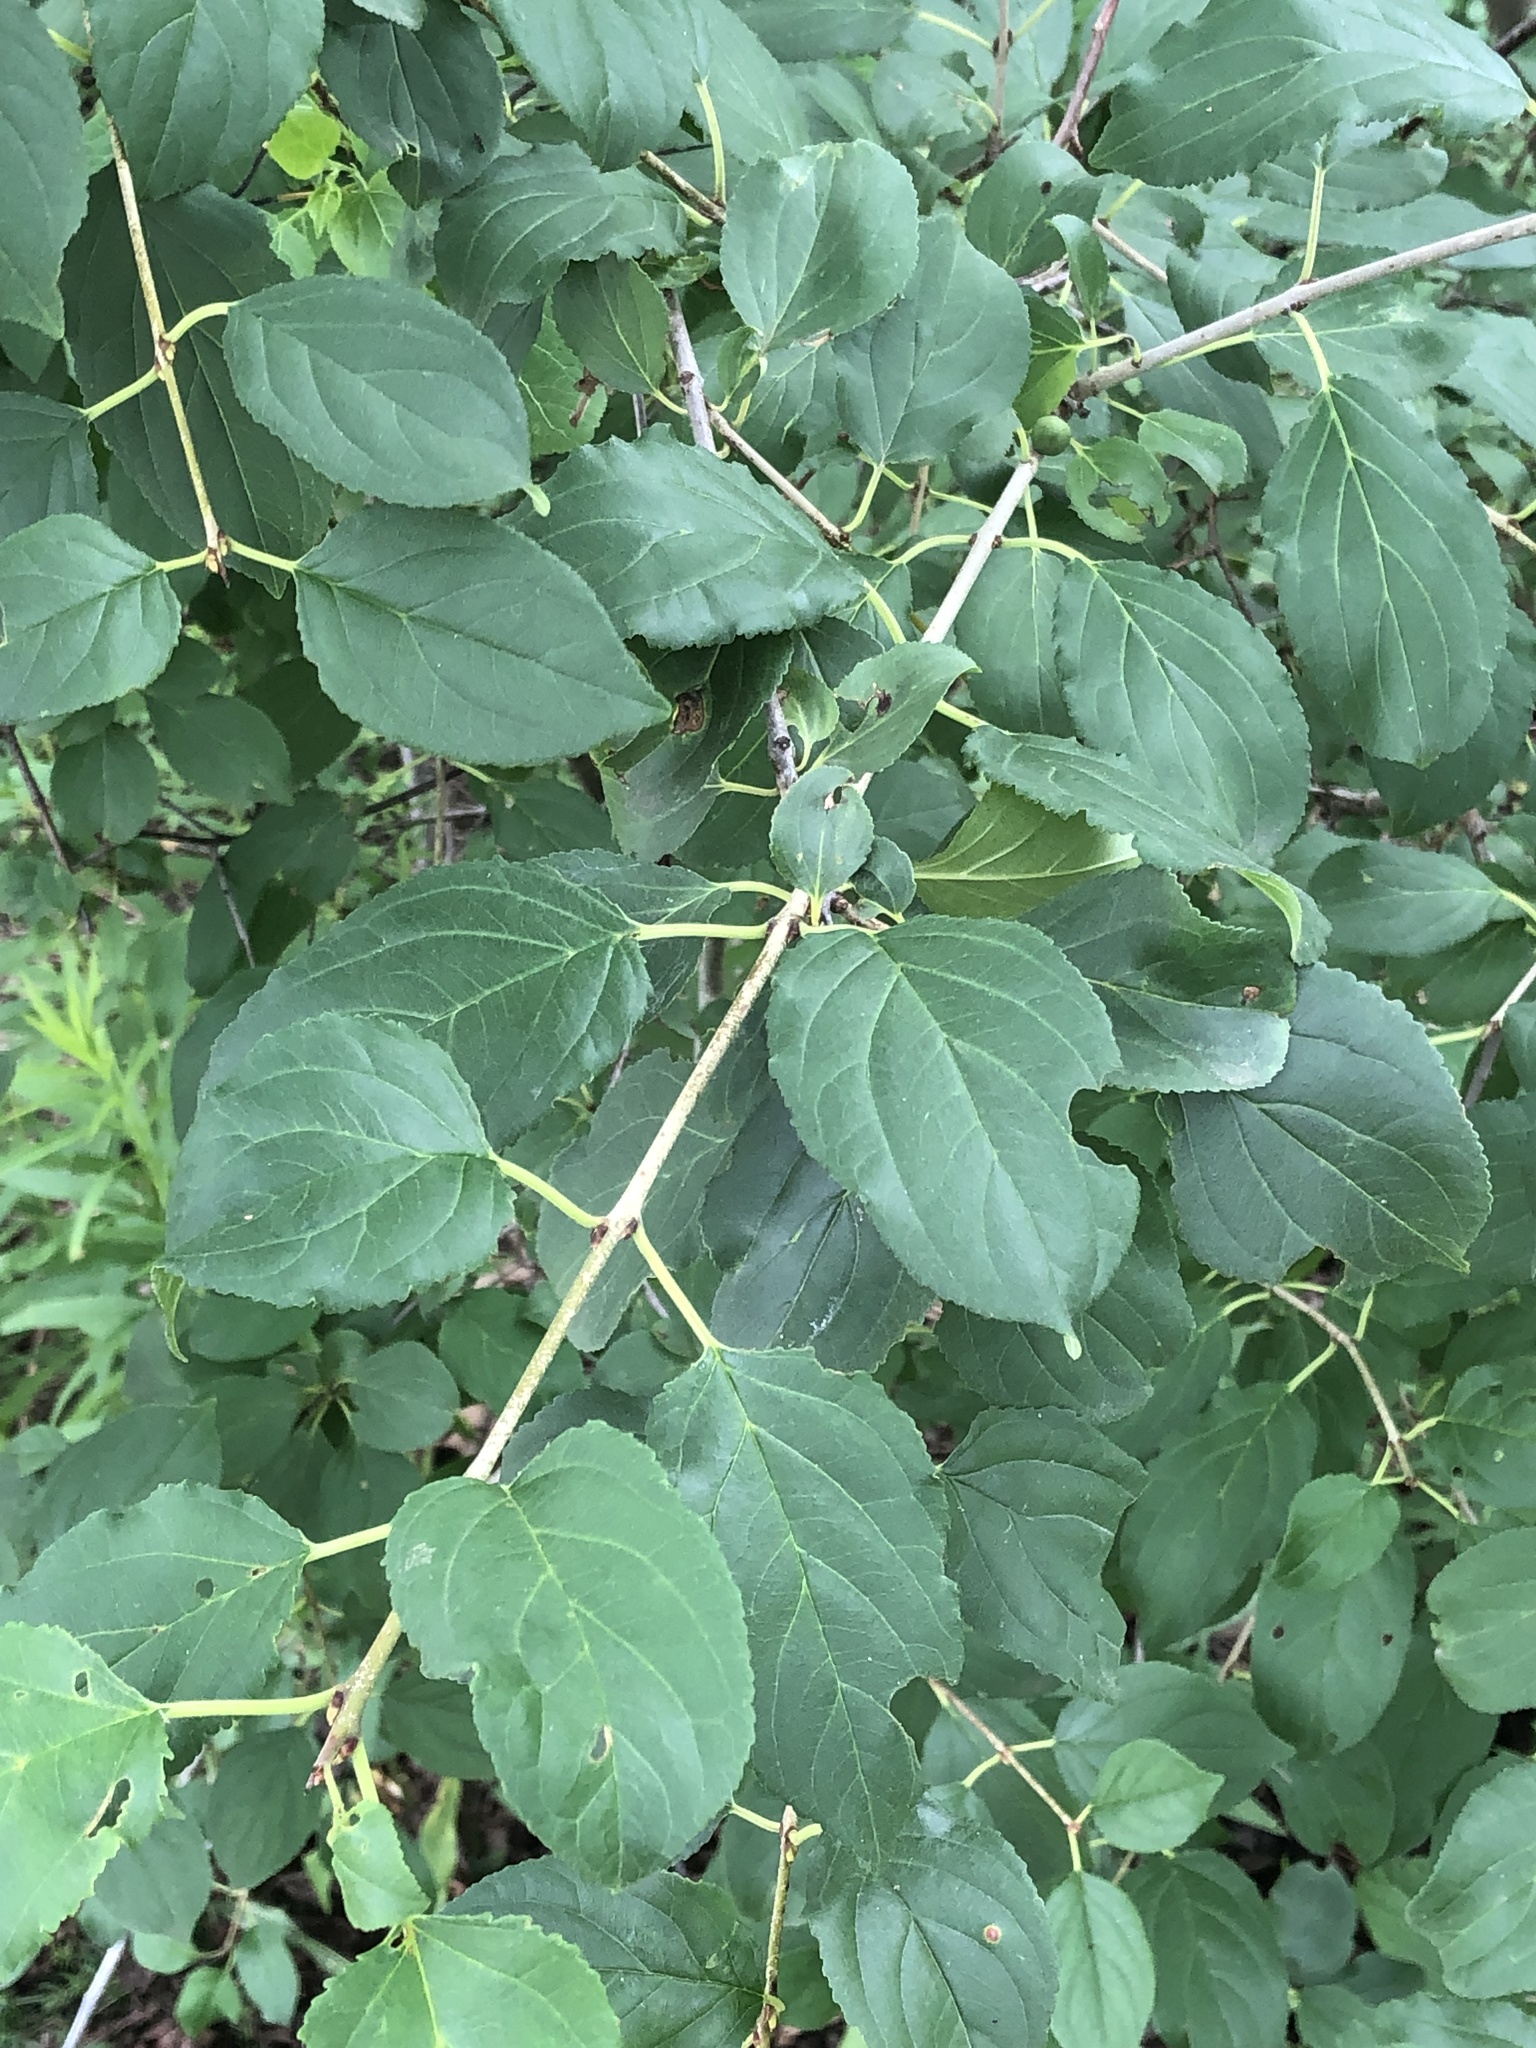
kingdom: Plantae
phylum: Tracheophyta
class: Magnoliopsida
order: Rosales
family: Rhamnaceae
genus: Rhamnus
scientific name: Rhamnus cathartica
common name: Common buckthorn
